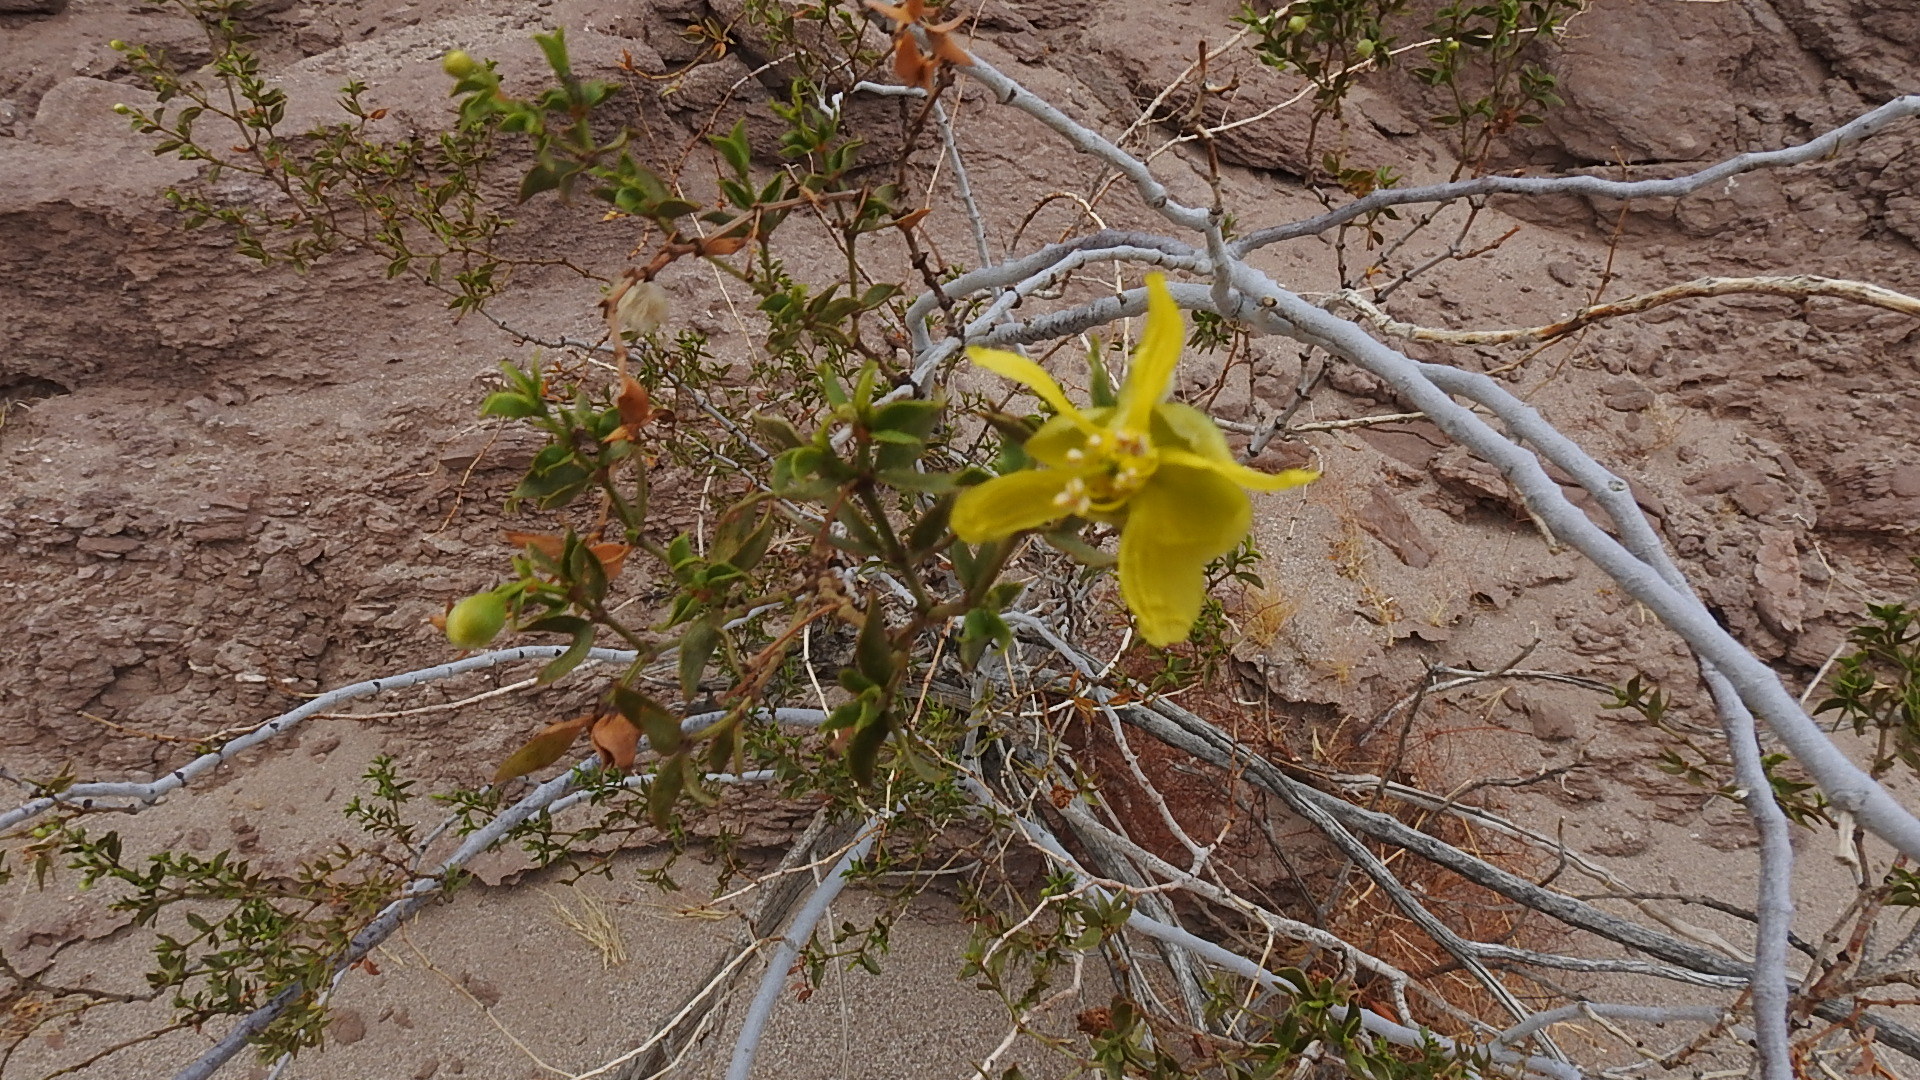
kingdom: Plantae
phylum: Tracheophyta
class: Magnoliopsida
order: Zygophyllales
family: Zygophyllaceae
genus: Larrea
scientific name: Larrea tridentata
